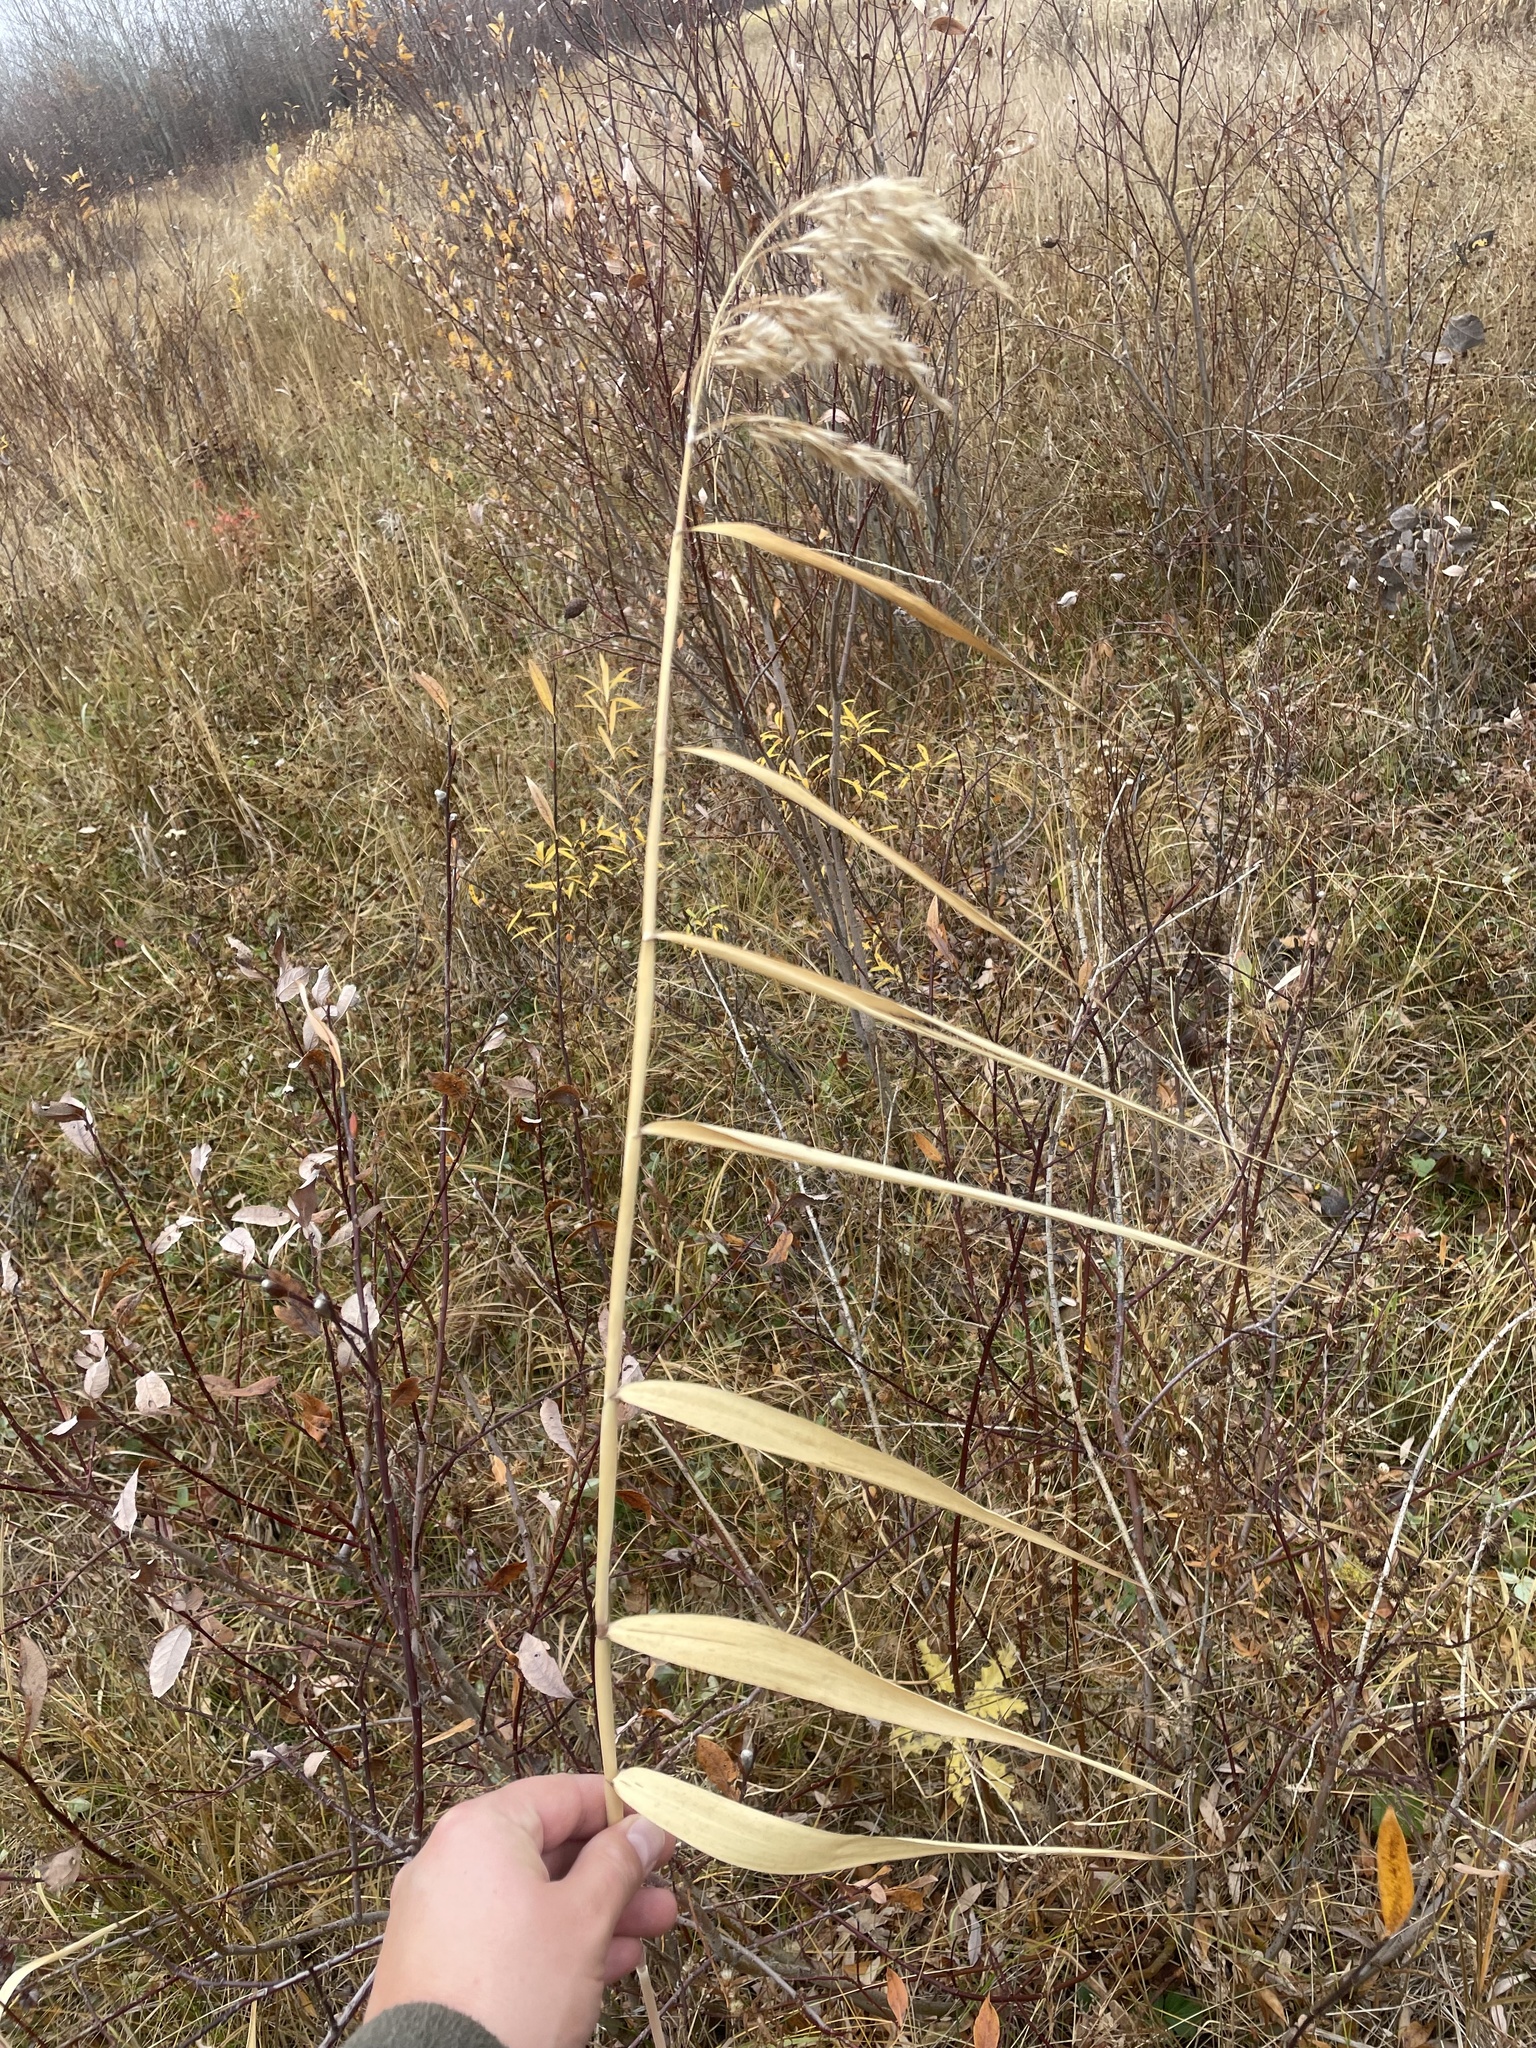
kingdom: Plantae
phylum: Tracheophyta
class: Liliopsida
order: Poales
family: Poaceae
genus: Phragmites
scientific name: Phragmites australis
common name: Common reed
